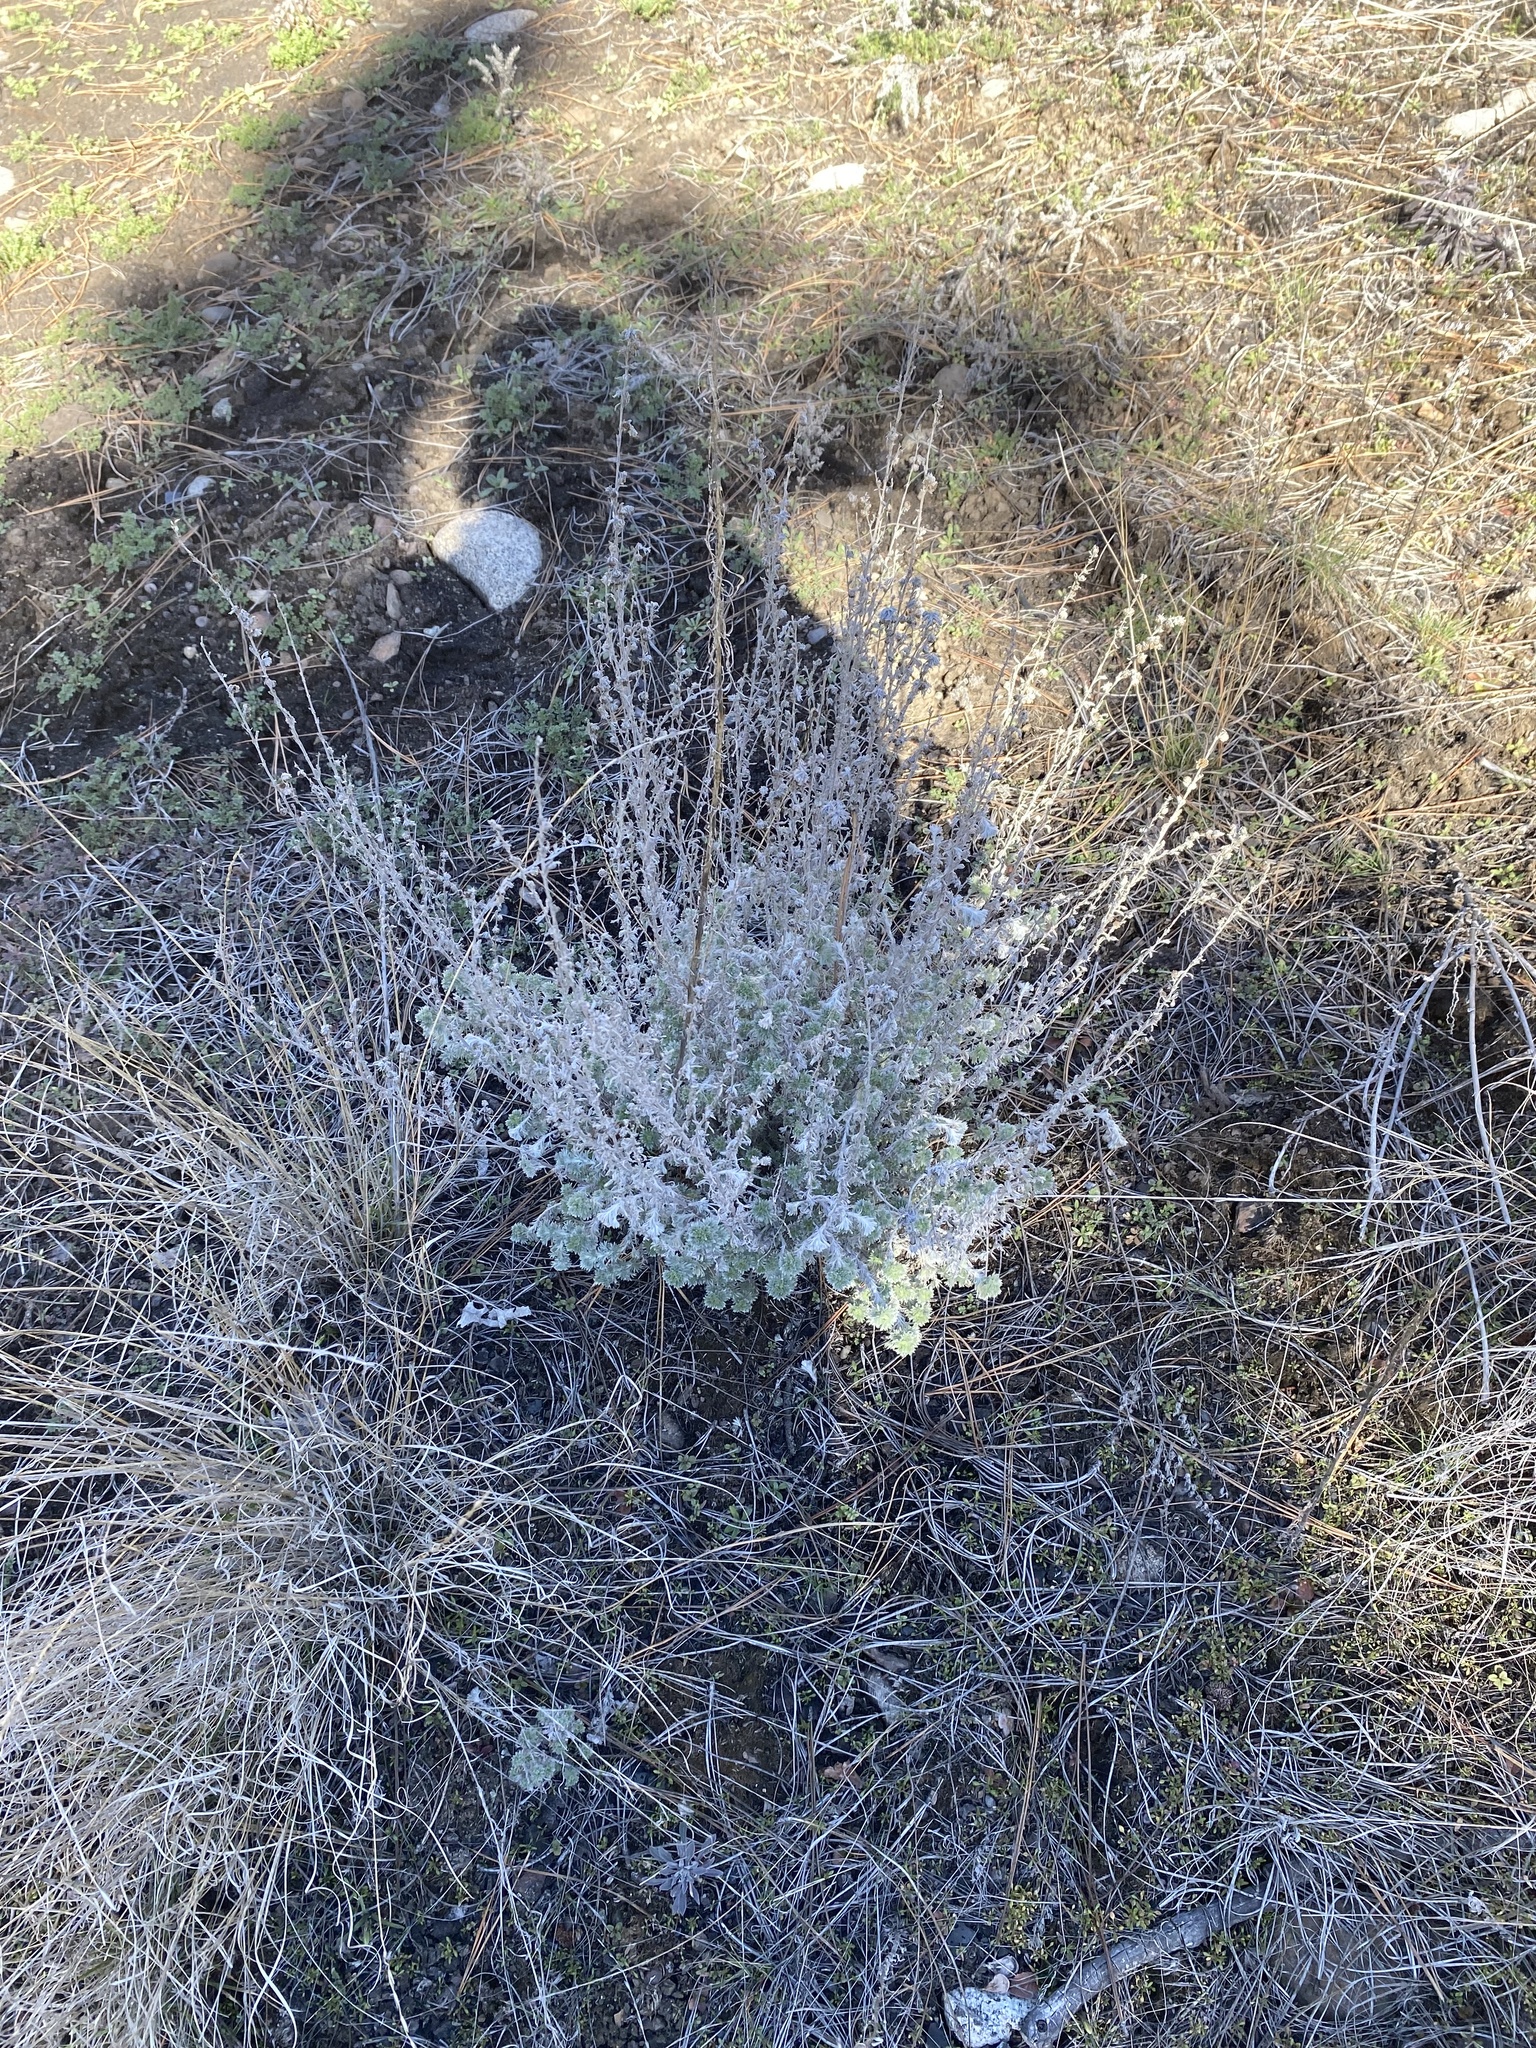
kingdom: Plantae
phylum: Tracheophyta
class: Magnoliopsida
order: Asterales
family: Asteraceae
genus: Artemisia
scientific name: Artemisia frigida
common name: Prairie sagewort
